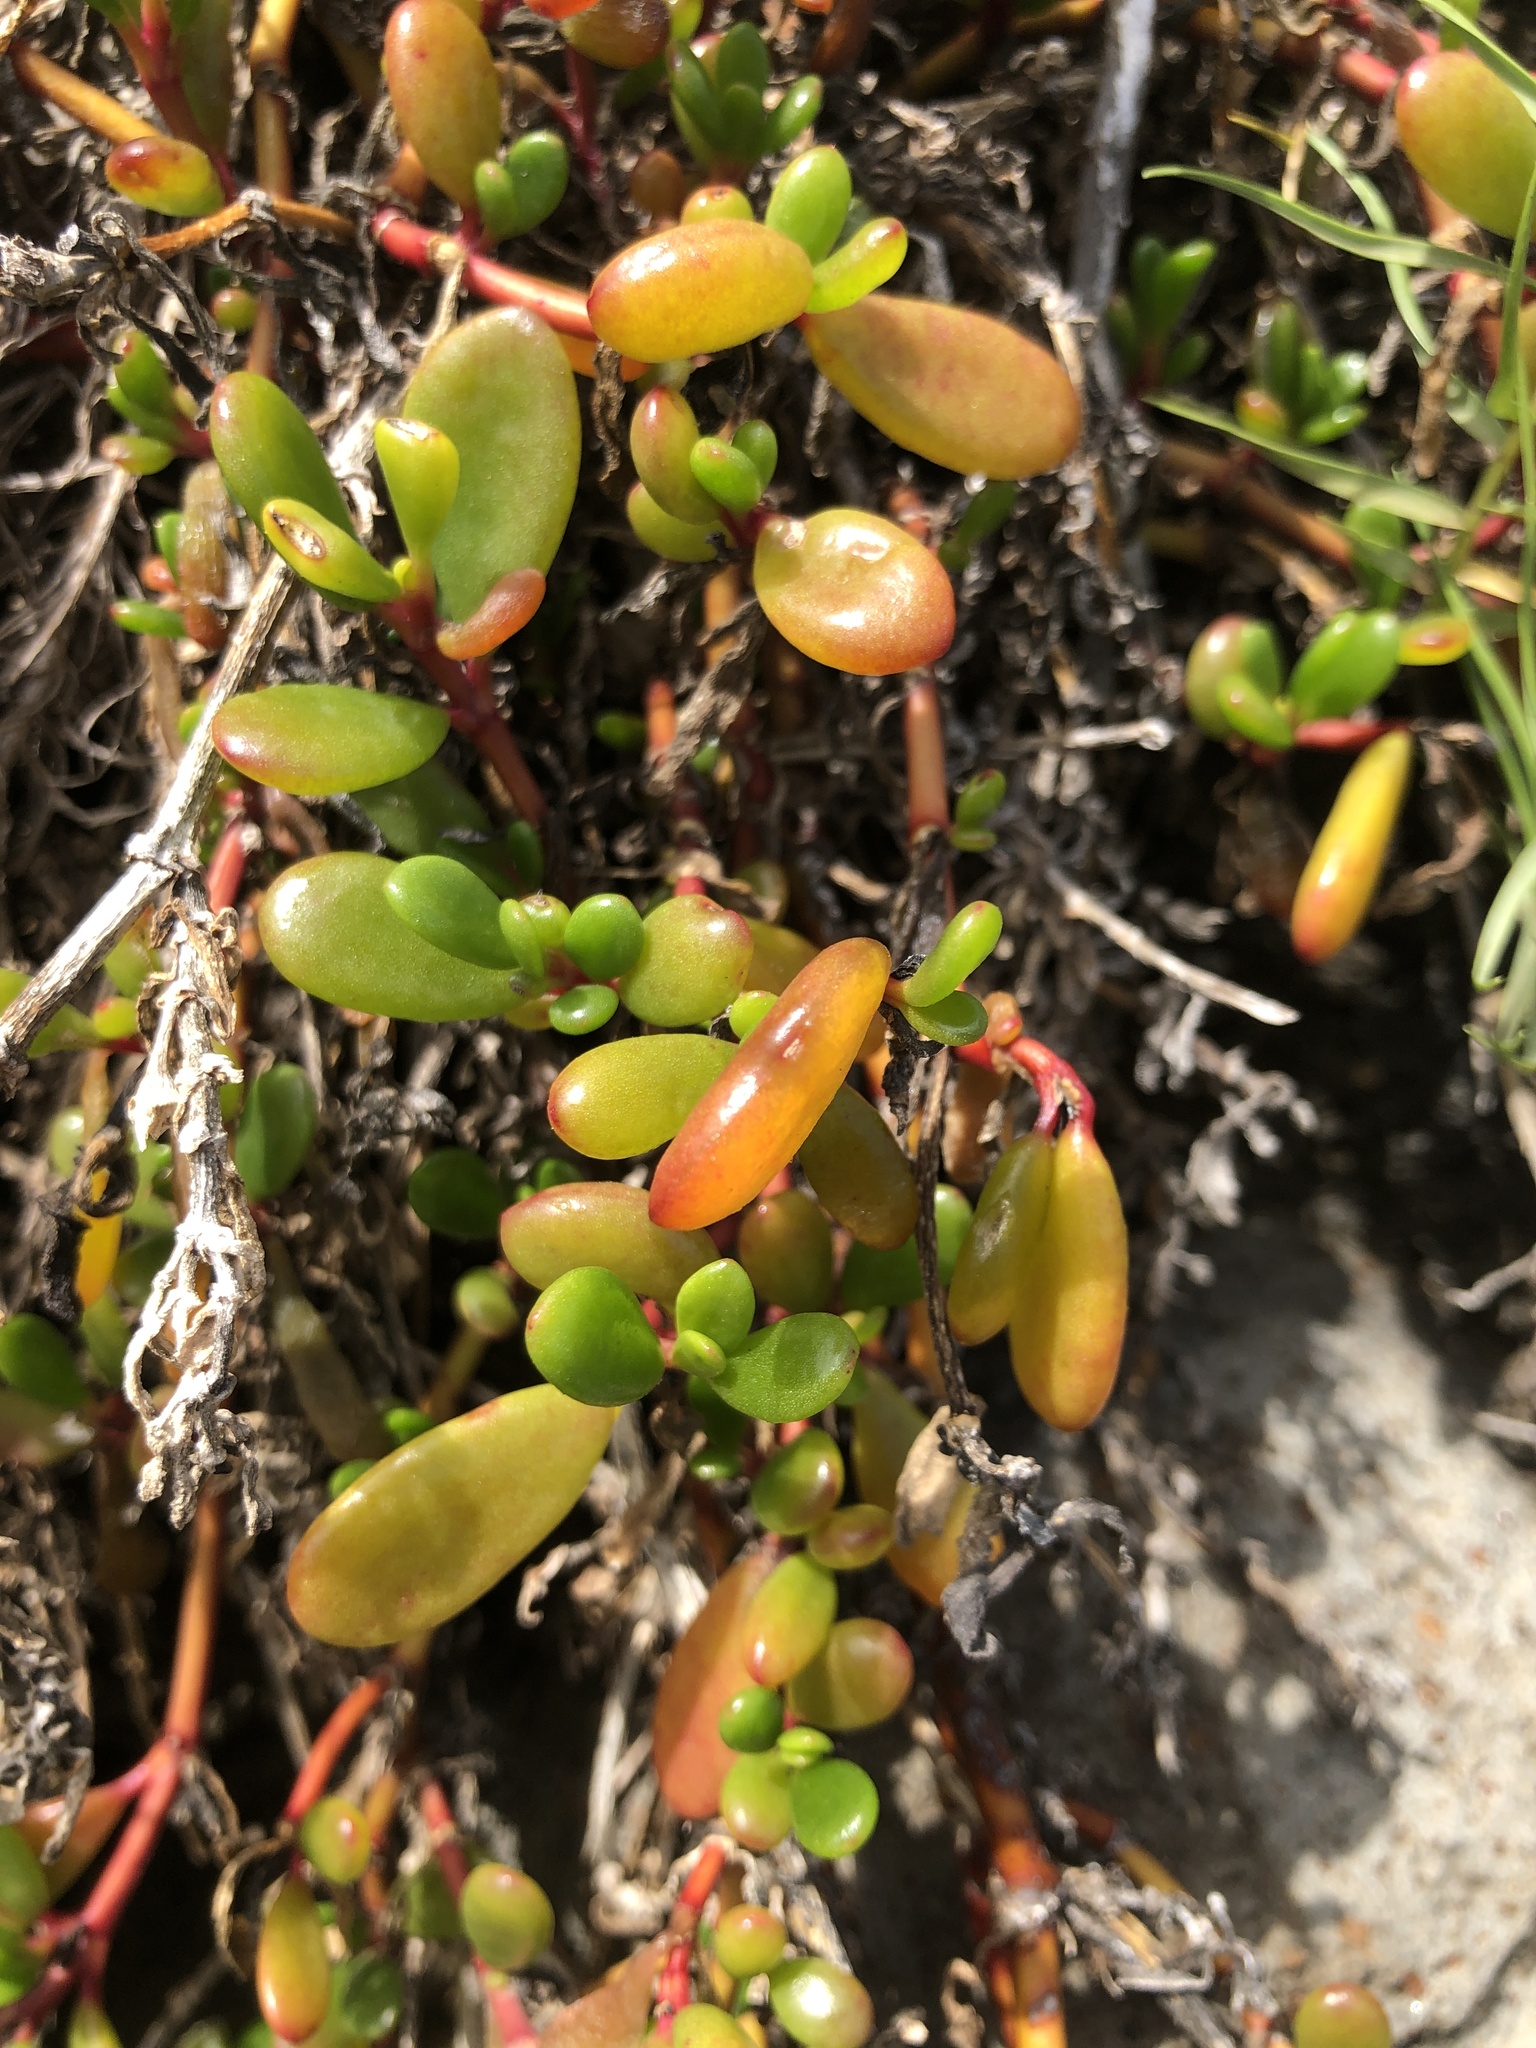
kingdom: Plantae
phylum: Tracheophyta
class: Magnoliopsida
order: Caryophyllales
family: Aizoaceae
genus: Sesuvium
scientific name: Sesuvium portulacastrum
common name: Sea-purslane
